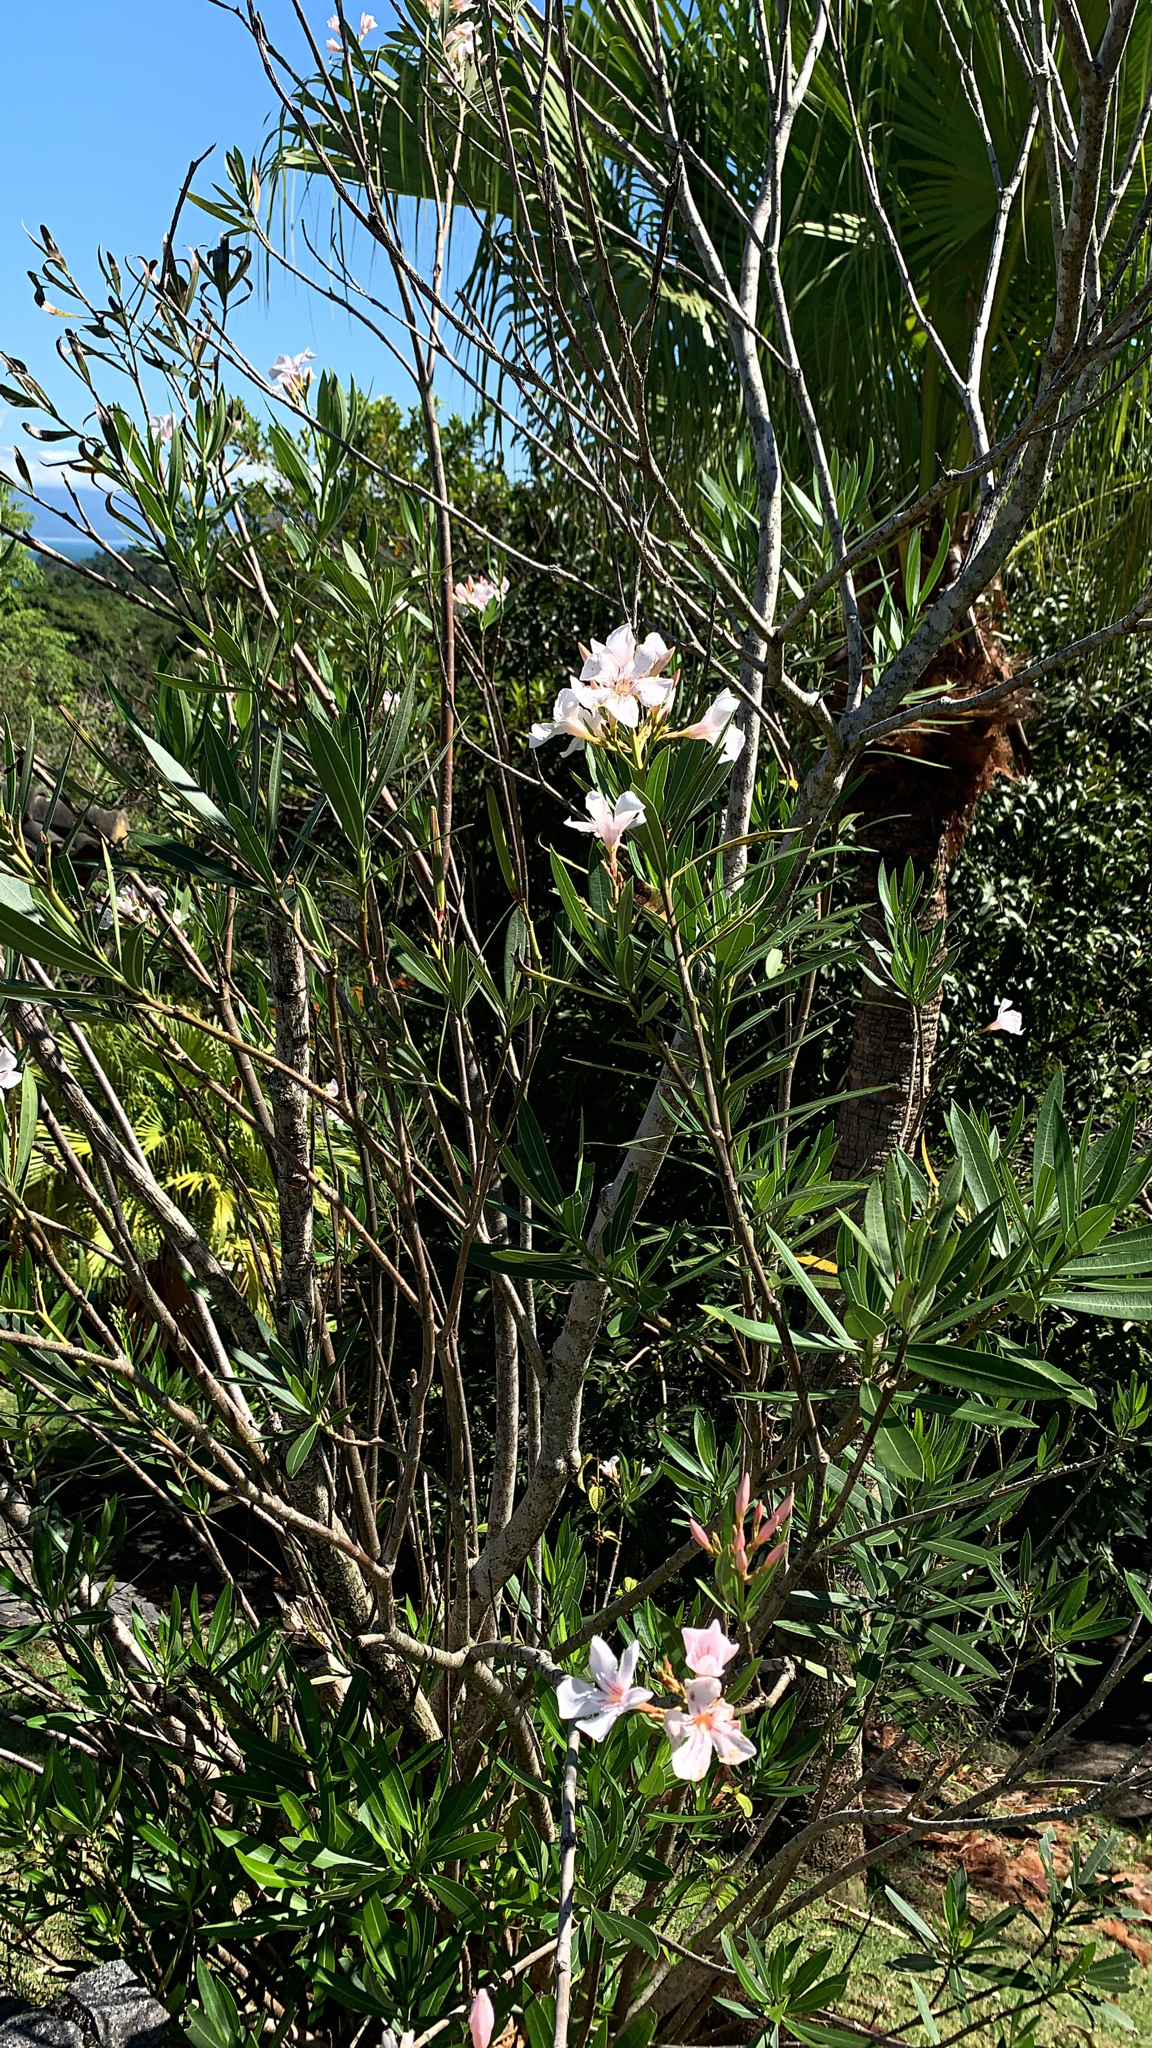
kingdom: Plantae
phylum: Tracheophyta
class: Magnoliopsida
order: Gentianales
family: Apocynaceae
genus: Nerium
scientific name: Nerium oleander
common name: Oleander
